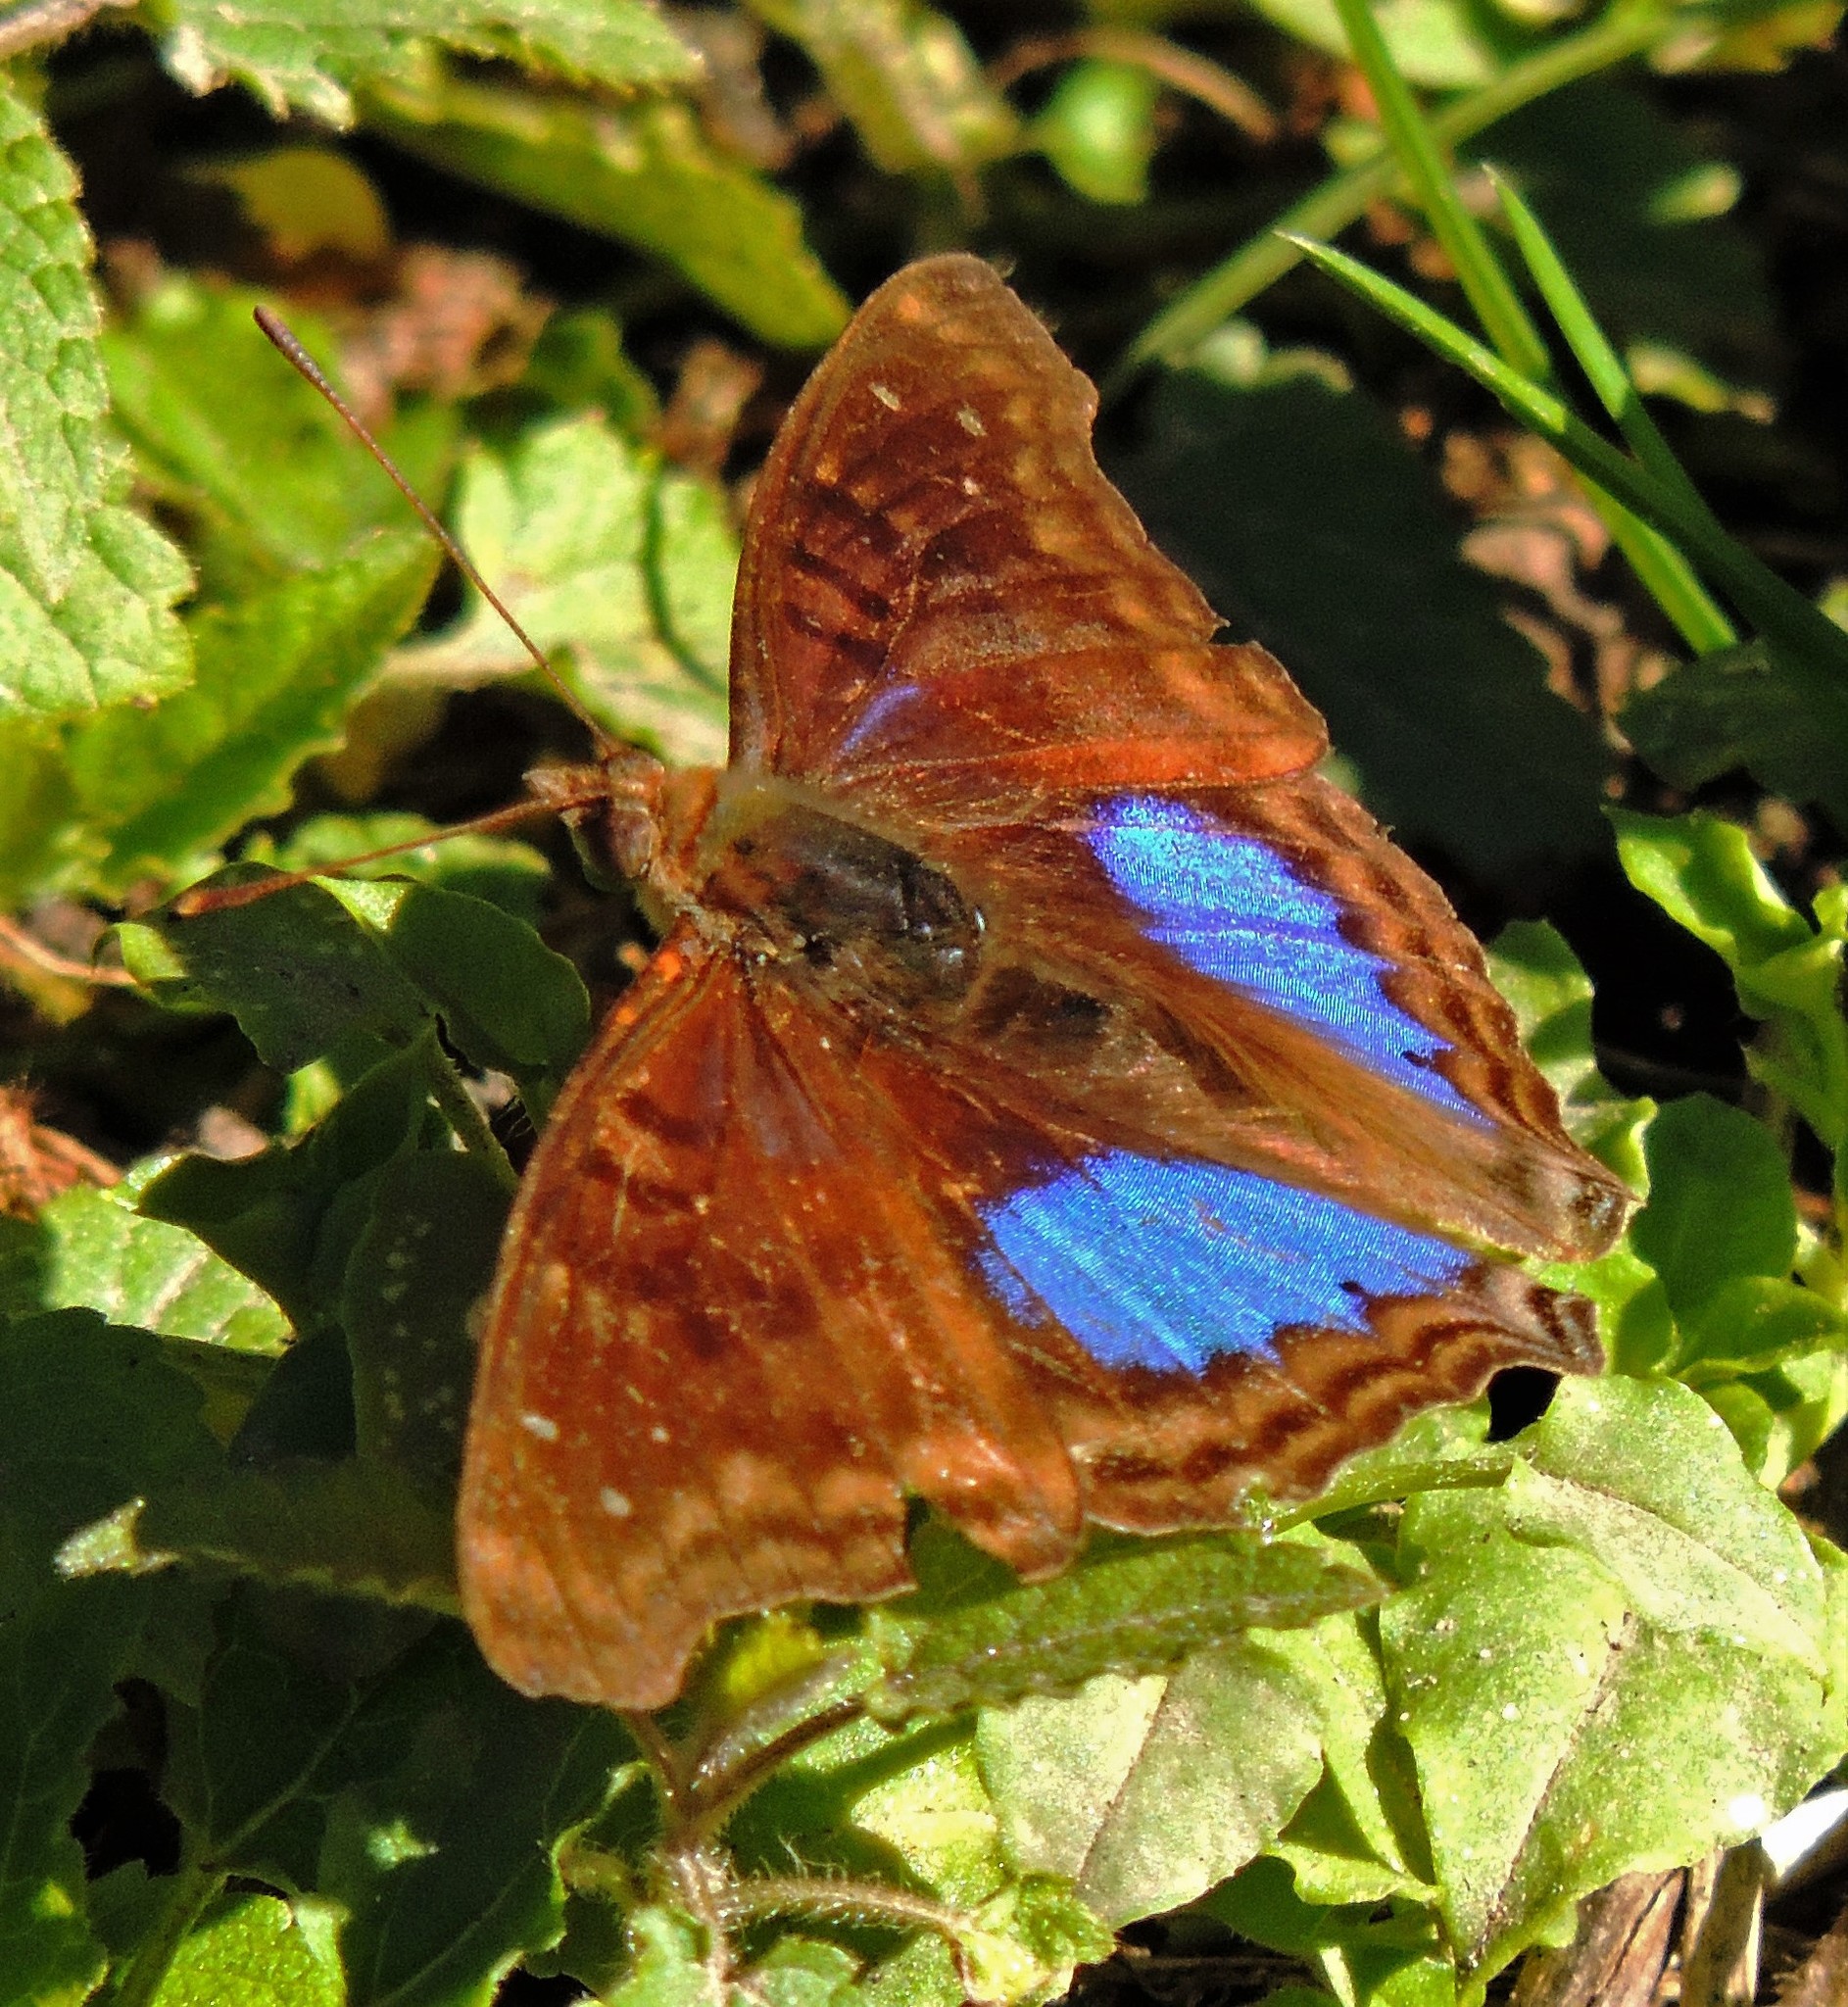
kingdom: Animalia
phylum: Arthropoda
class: Insecta
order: Lepidoptera
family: Nymphalidae
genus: Doxocopa
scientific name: Doxocopa cyane
